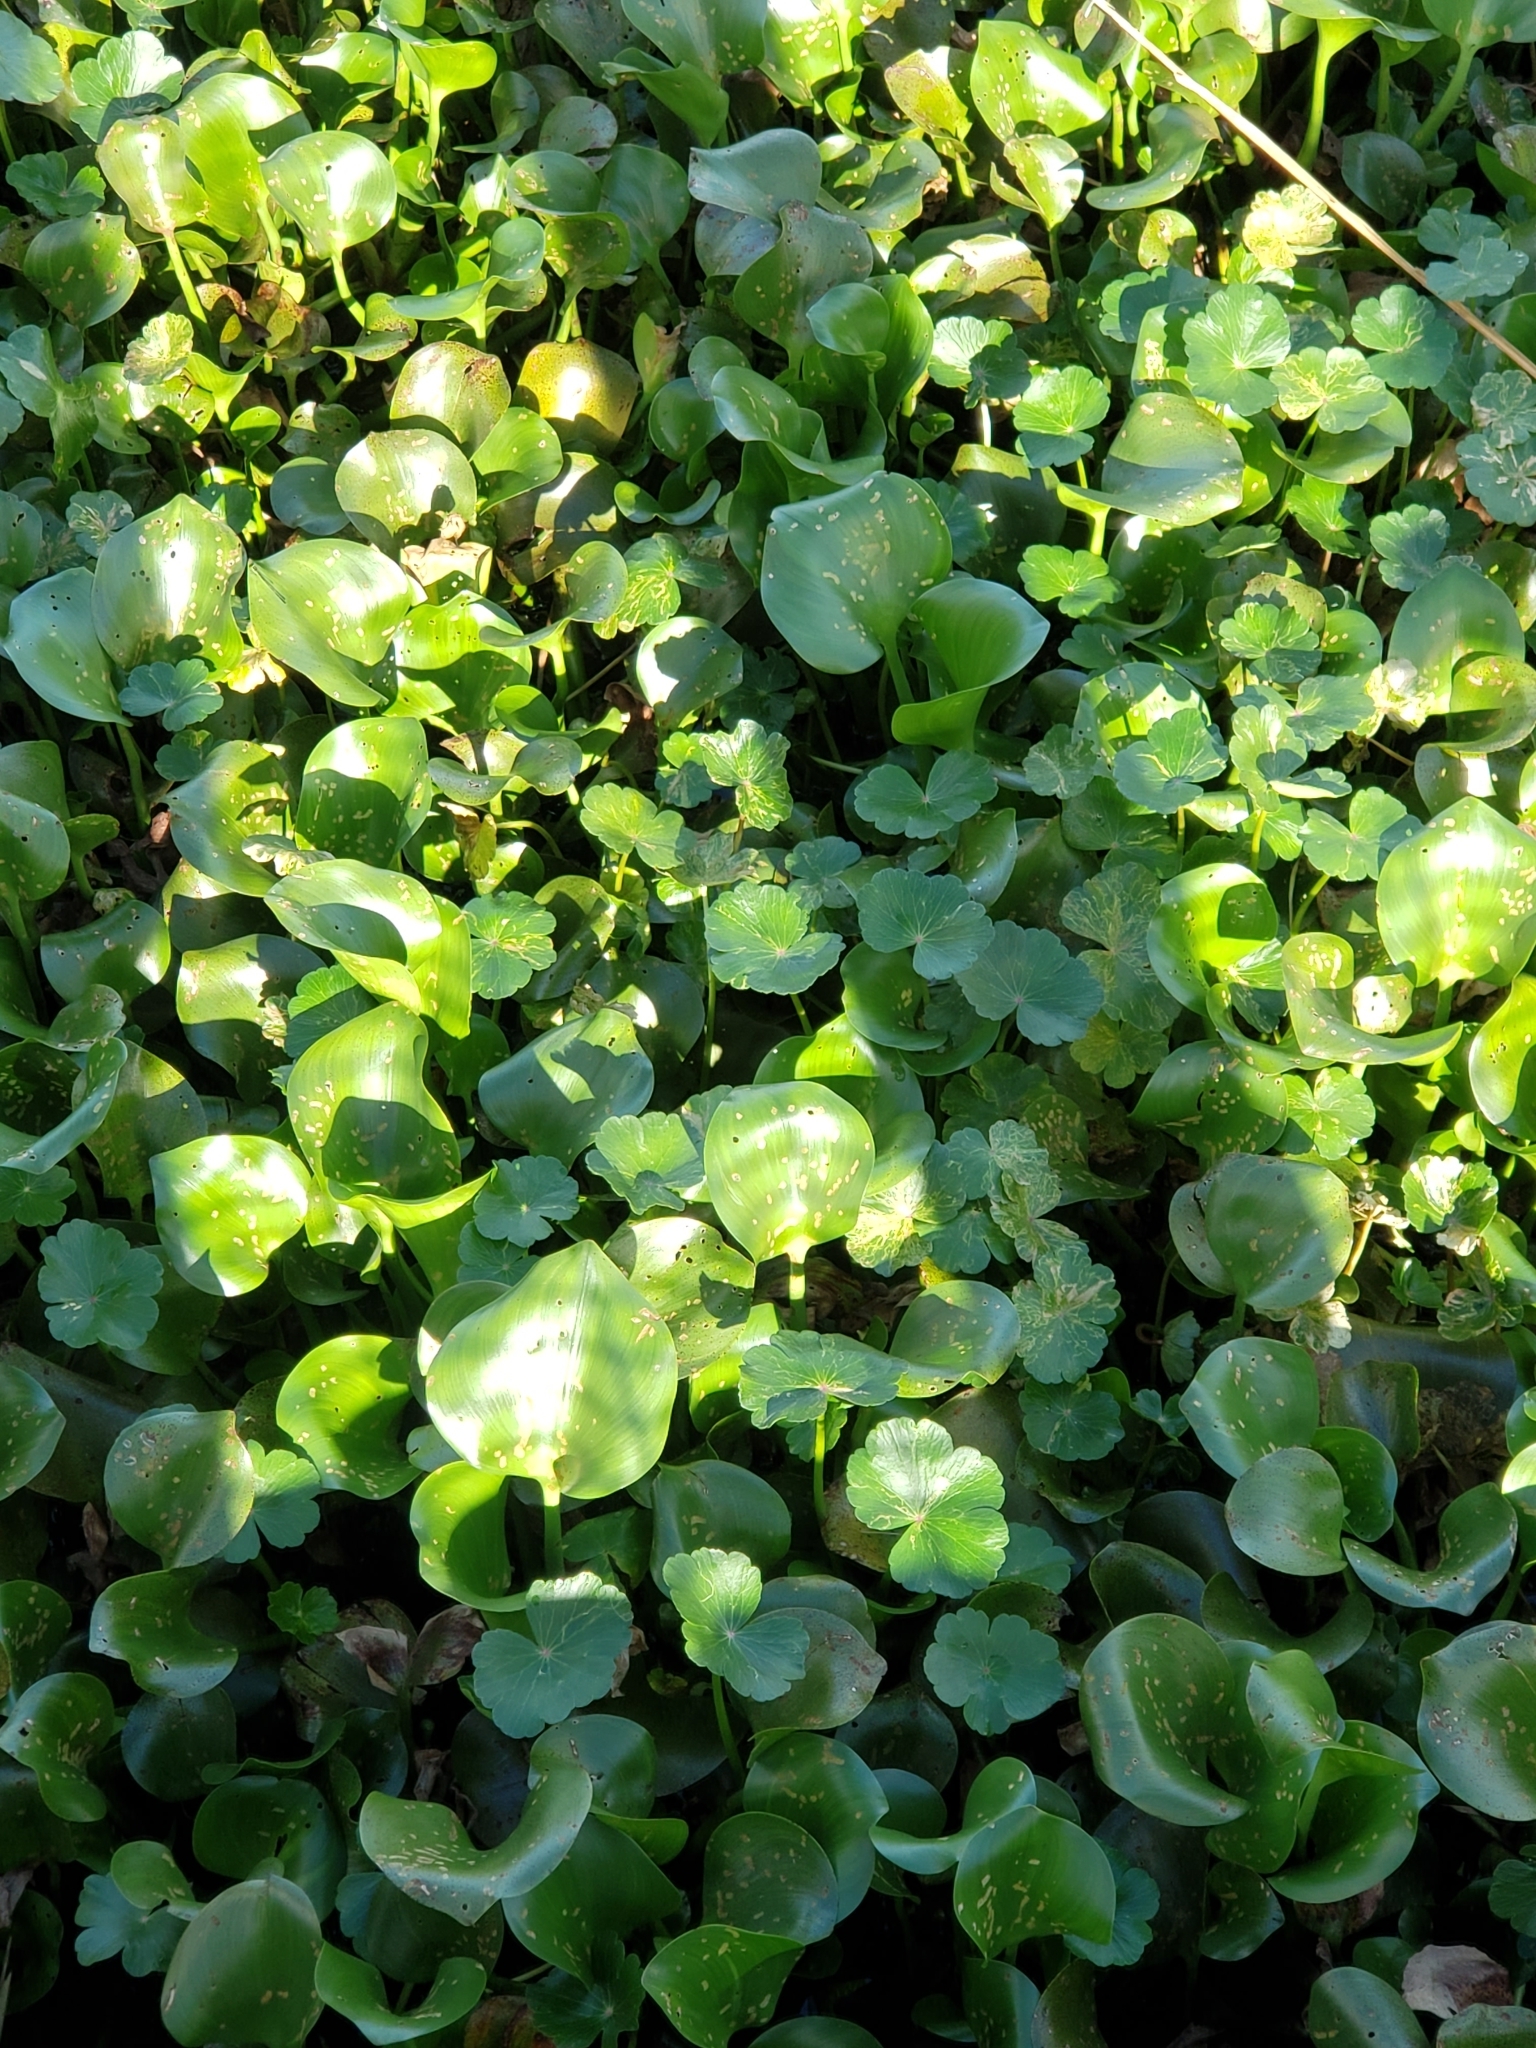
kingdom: Plantae
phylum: Tracheophyta
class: Liliopsida
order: Commelinales
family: Pontederiaceae
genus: Pontederia
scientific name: Pontederia crassipes
